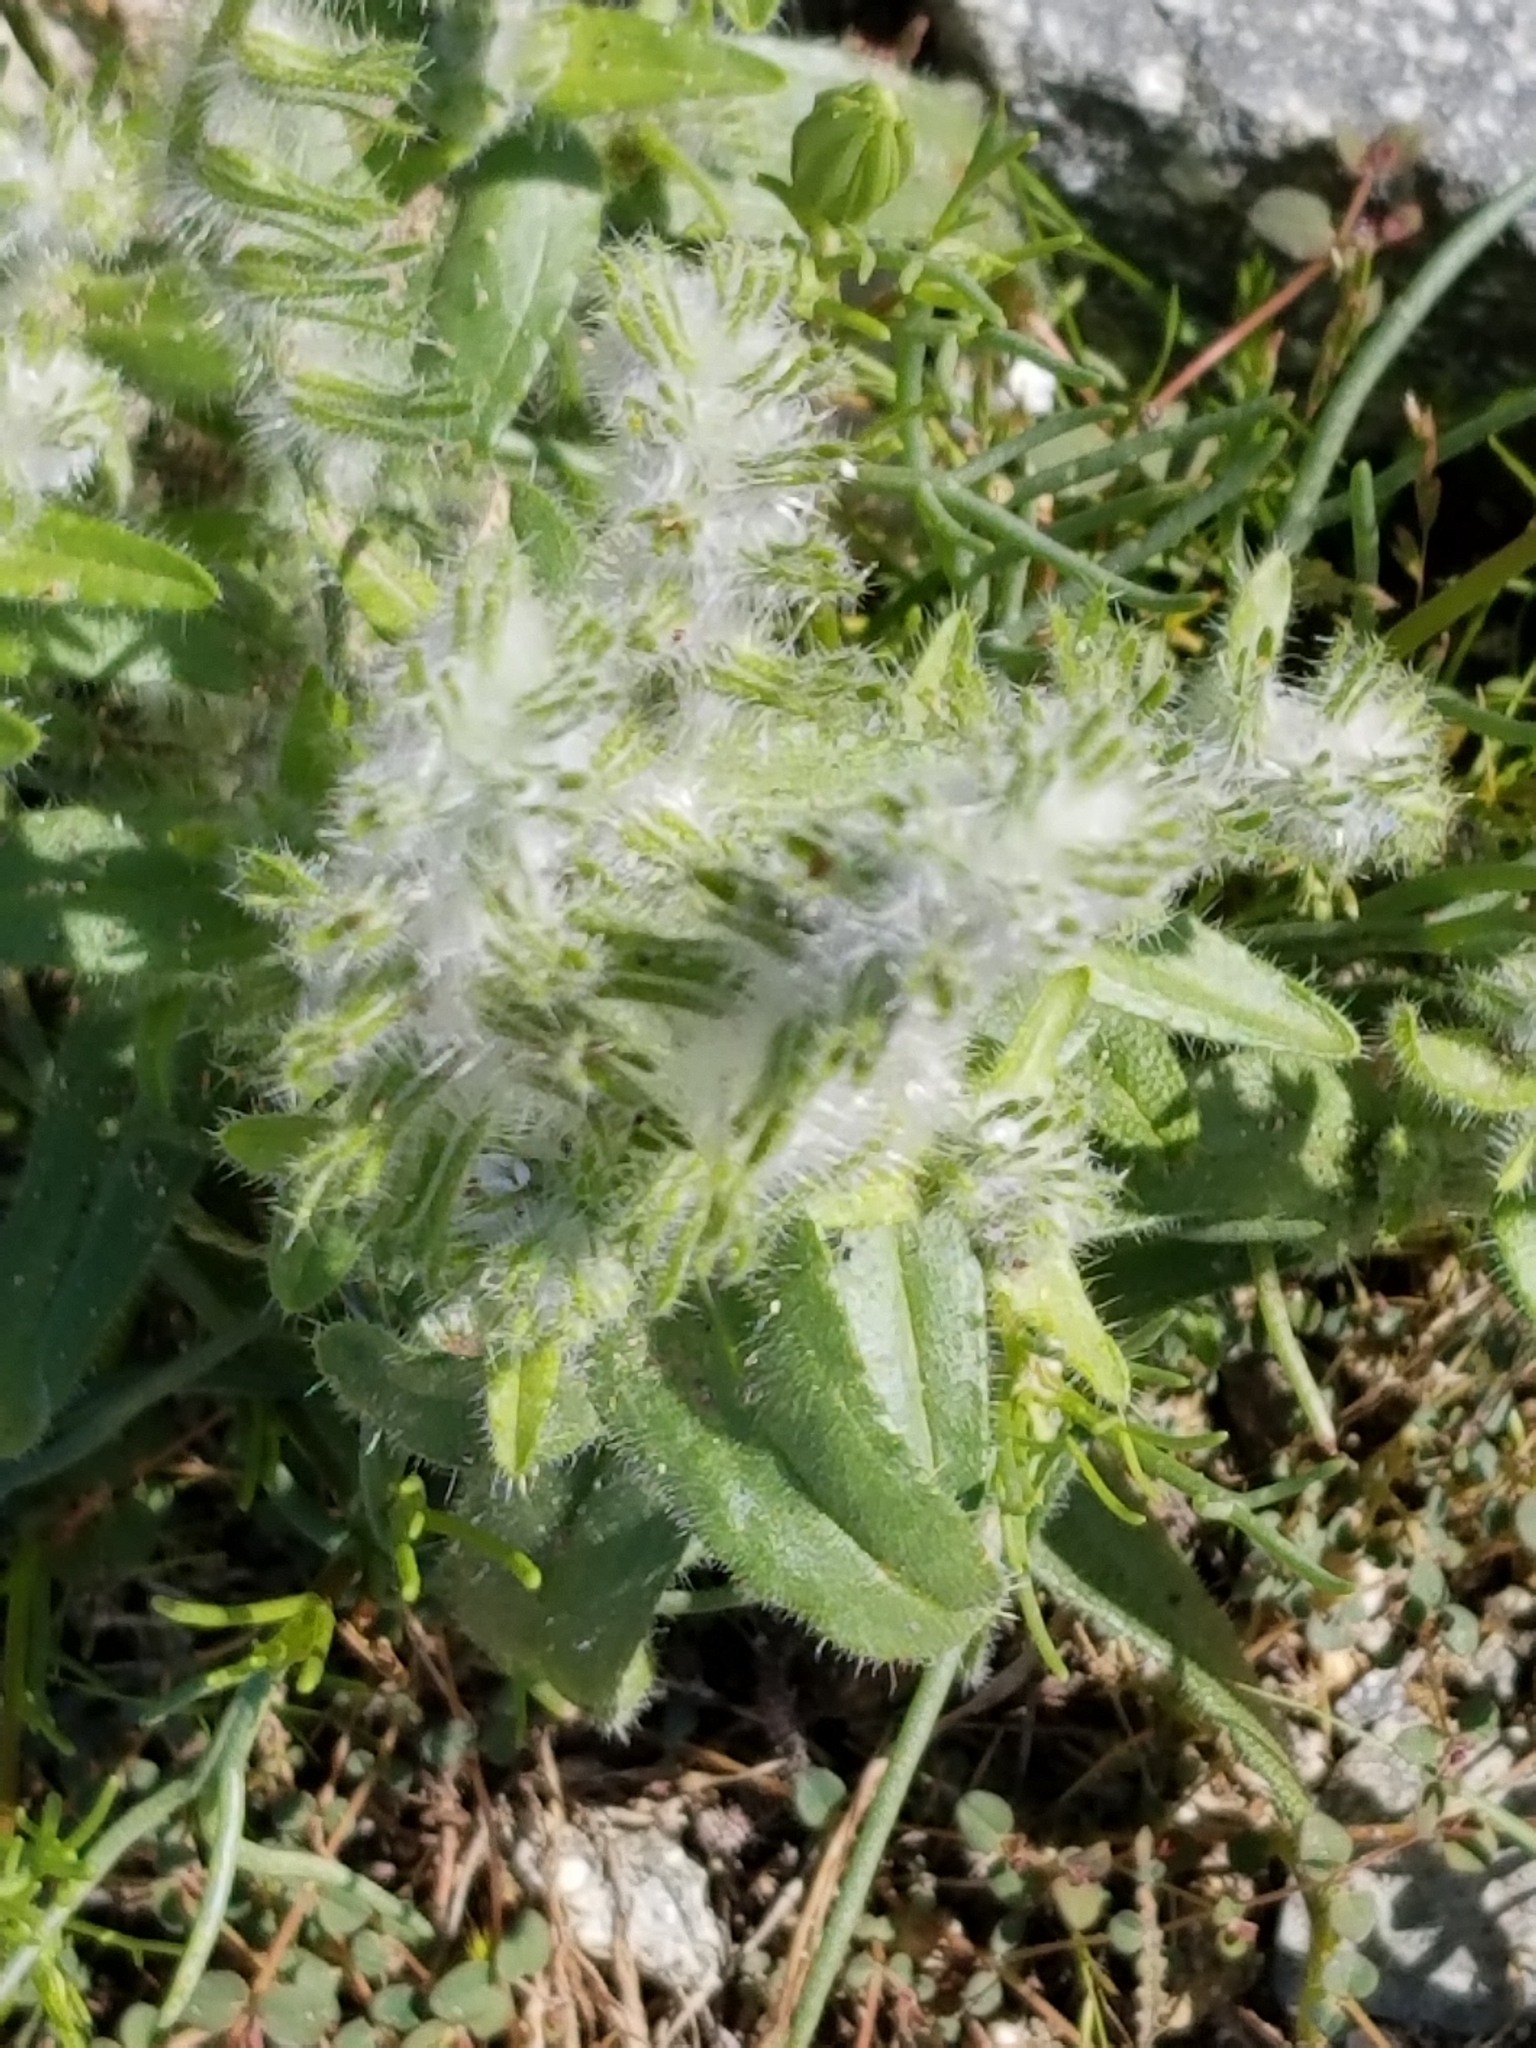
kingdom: Plantae
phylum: Tracheophyta
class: Magnoliopsida
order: Boraginales
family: Boraginaceae
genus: Cryptantha
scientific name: Cryptantha barbigera
